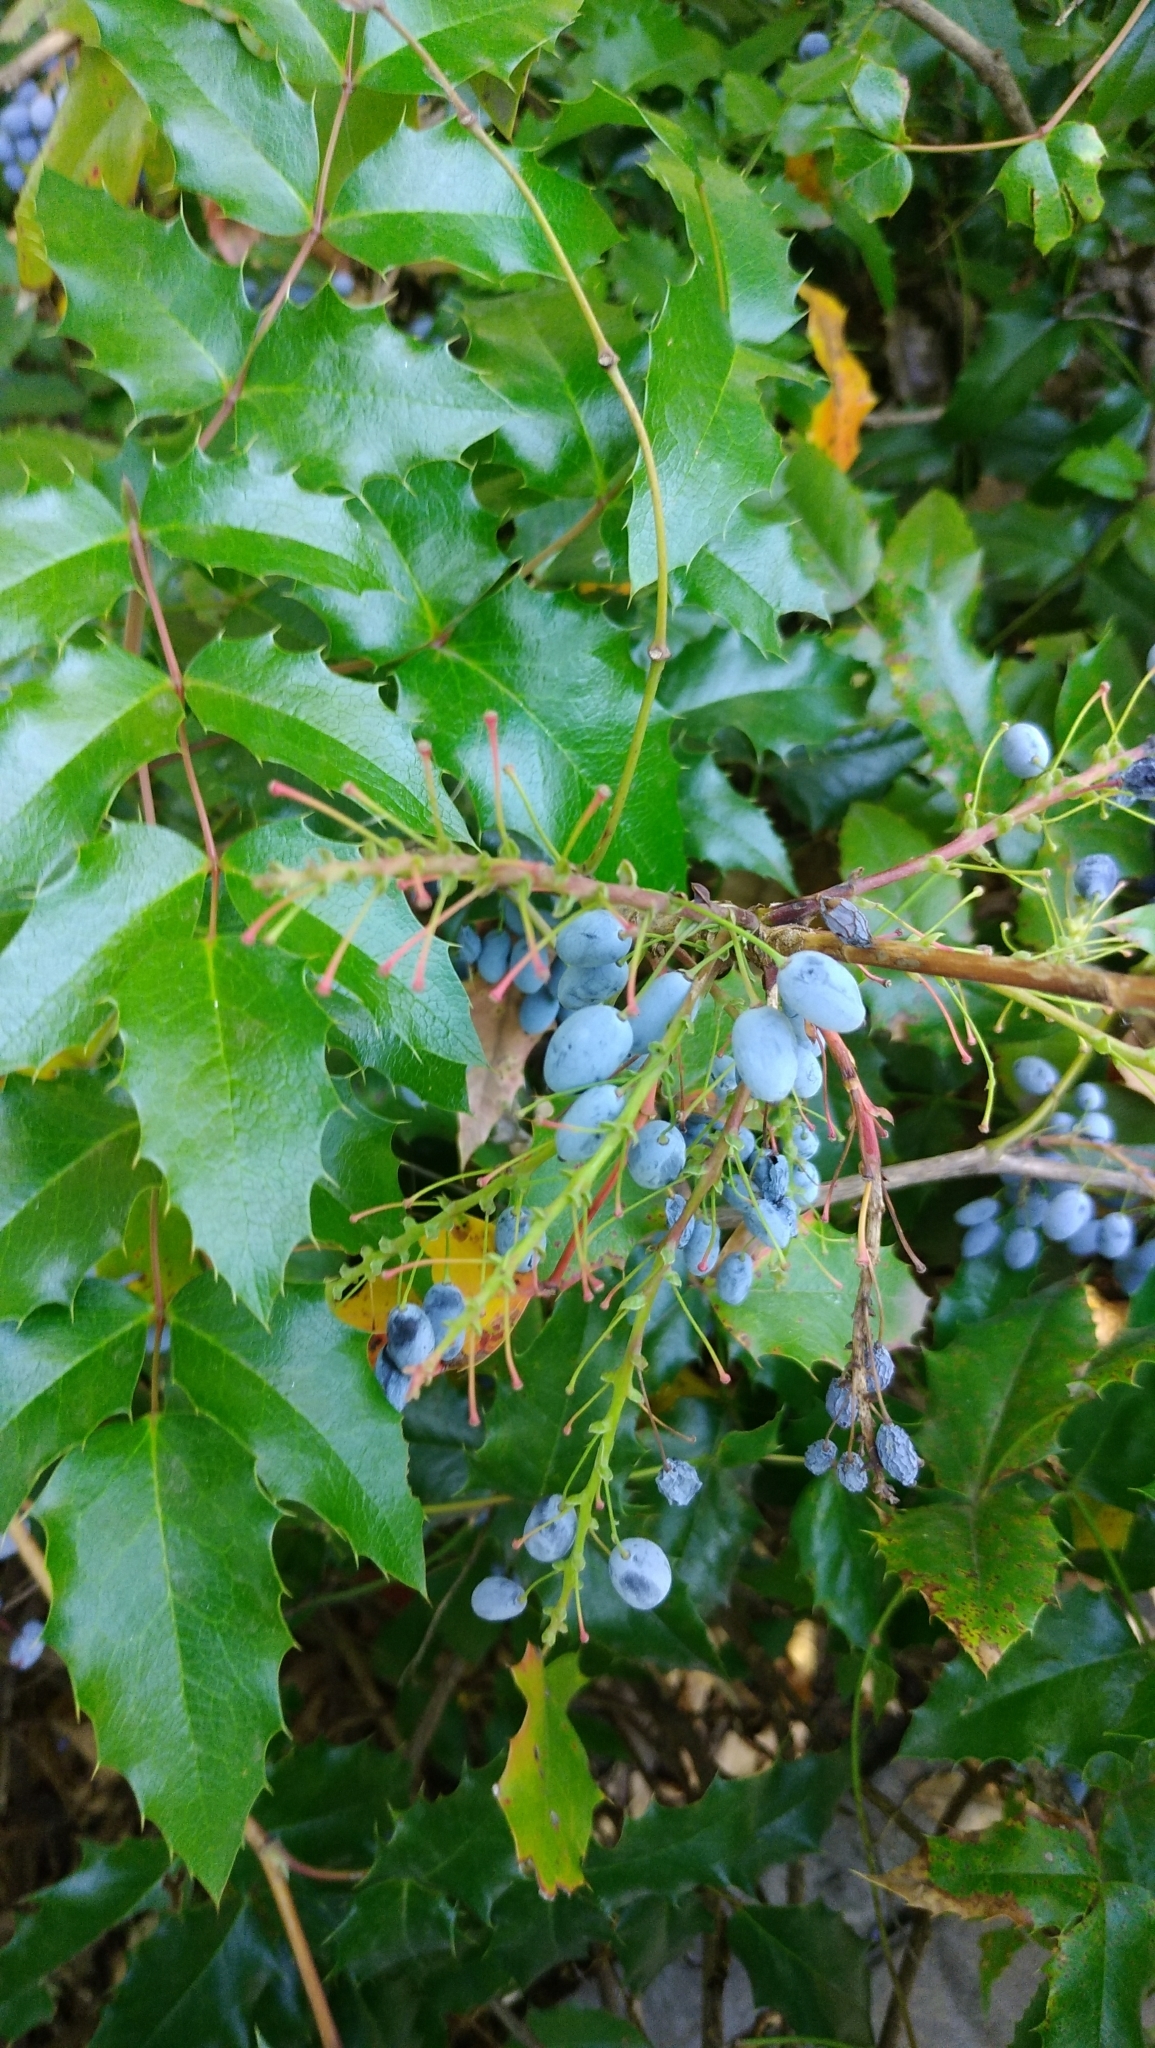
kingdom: Plantae
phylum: Tracheophyta
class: Magnoliopsida
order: Ranunculales
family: Berberidaceae
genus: Mahonia
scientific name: Mahonia aquifolium
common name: Oregon-grape
